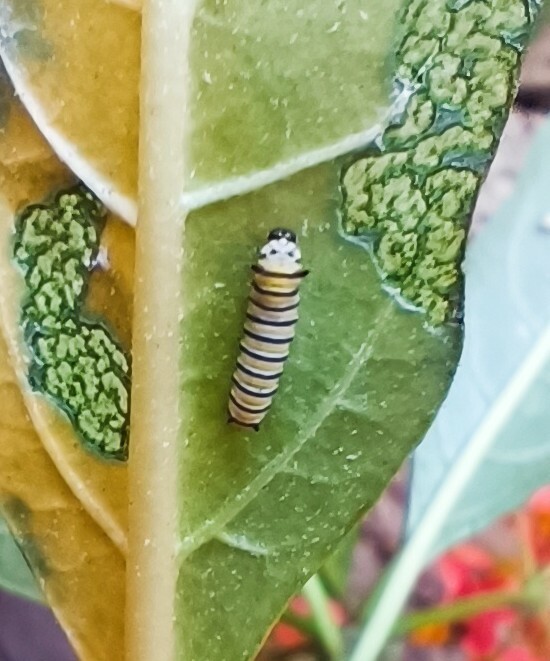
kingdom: Animalia
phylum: Arthropoda
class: Insecta
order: Lepidoptera
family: Nymphalidae
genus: Danaus
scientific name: Danaus plexippus
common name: Monarch
